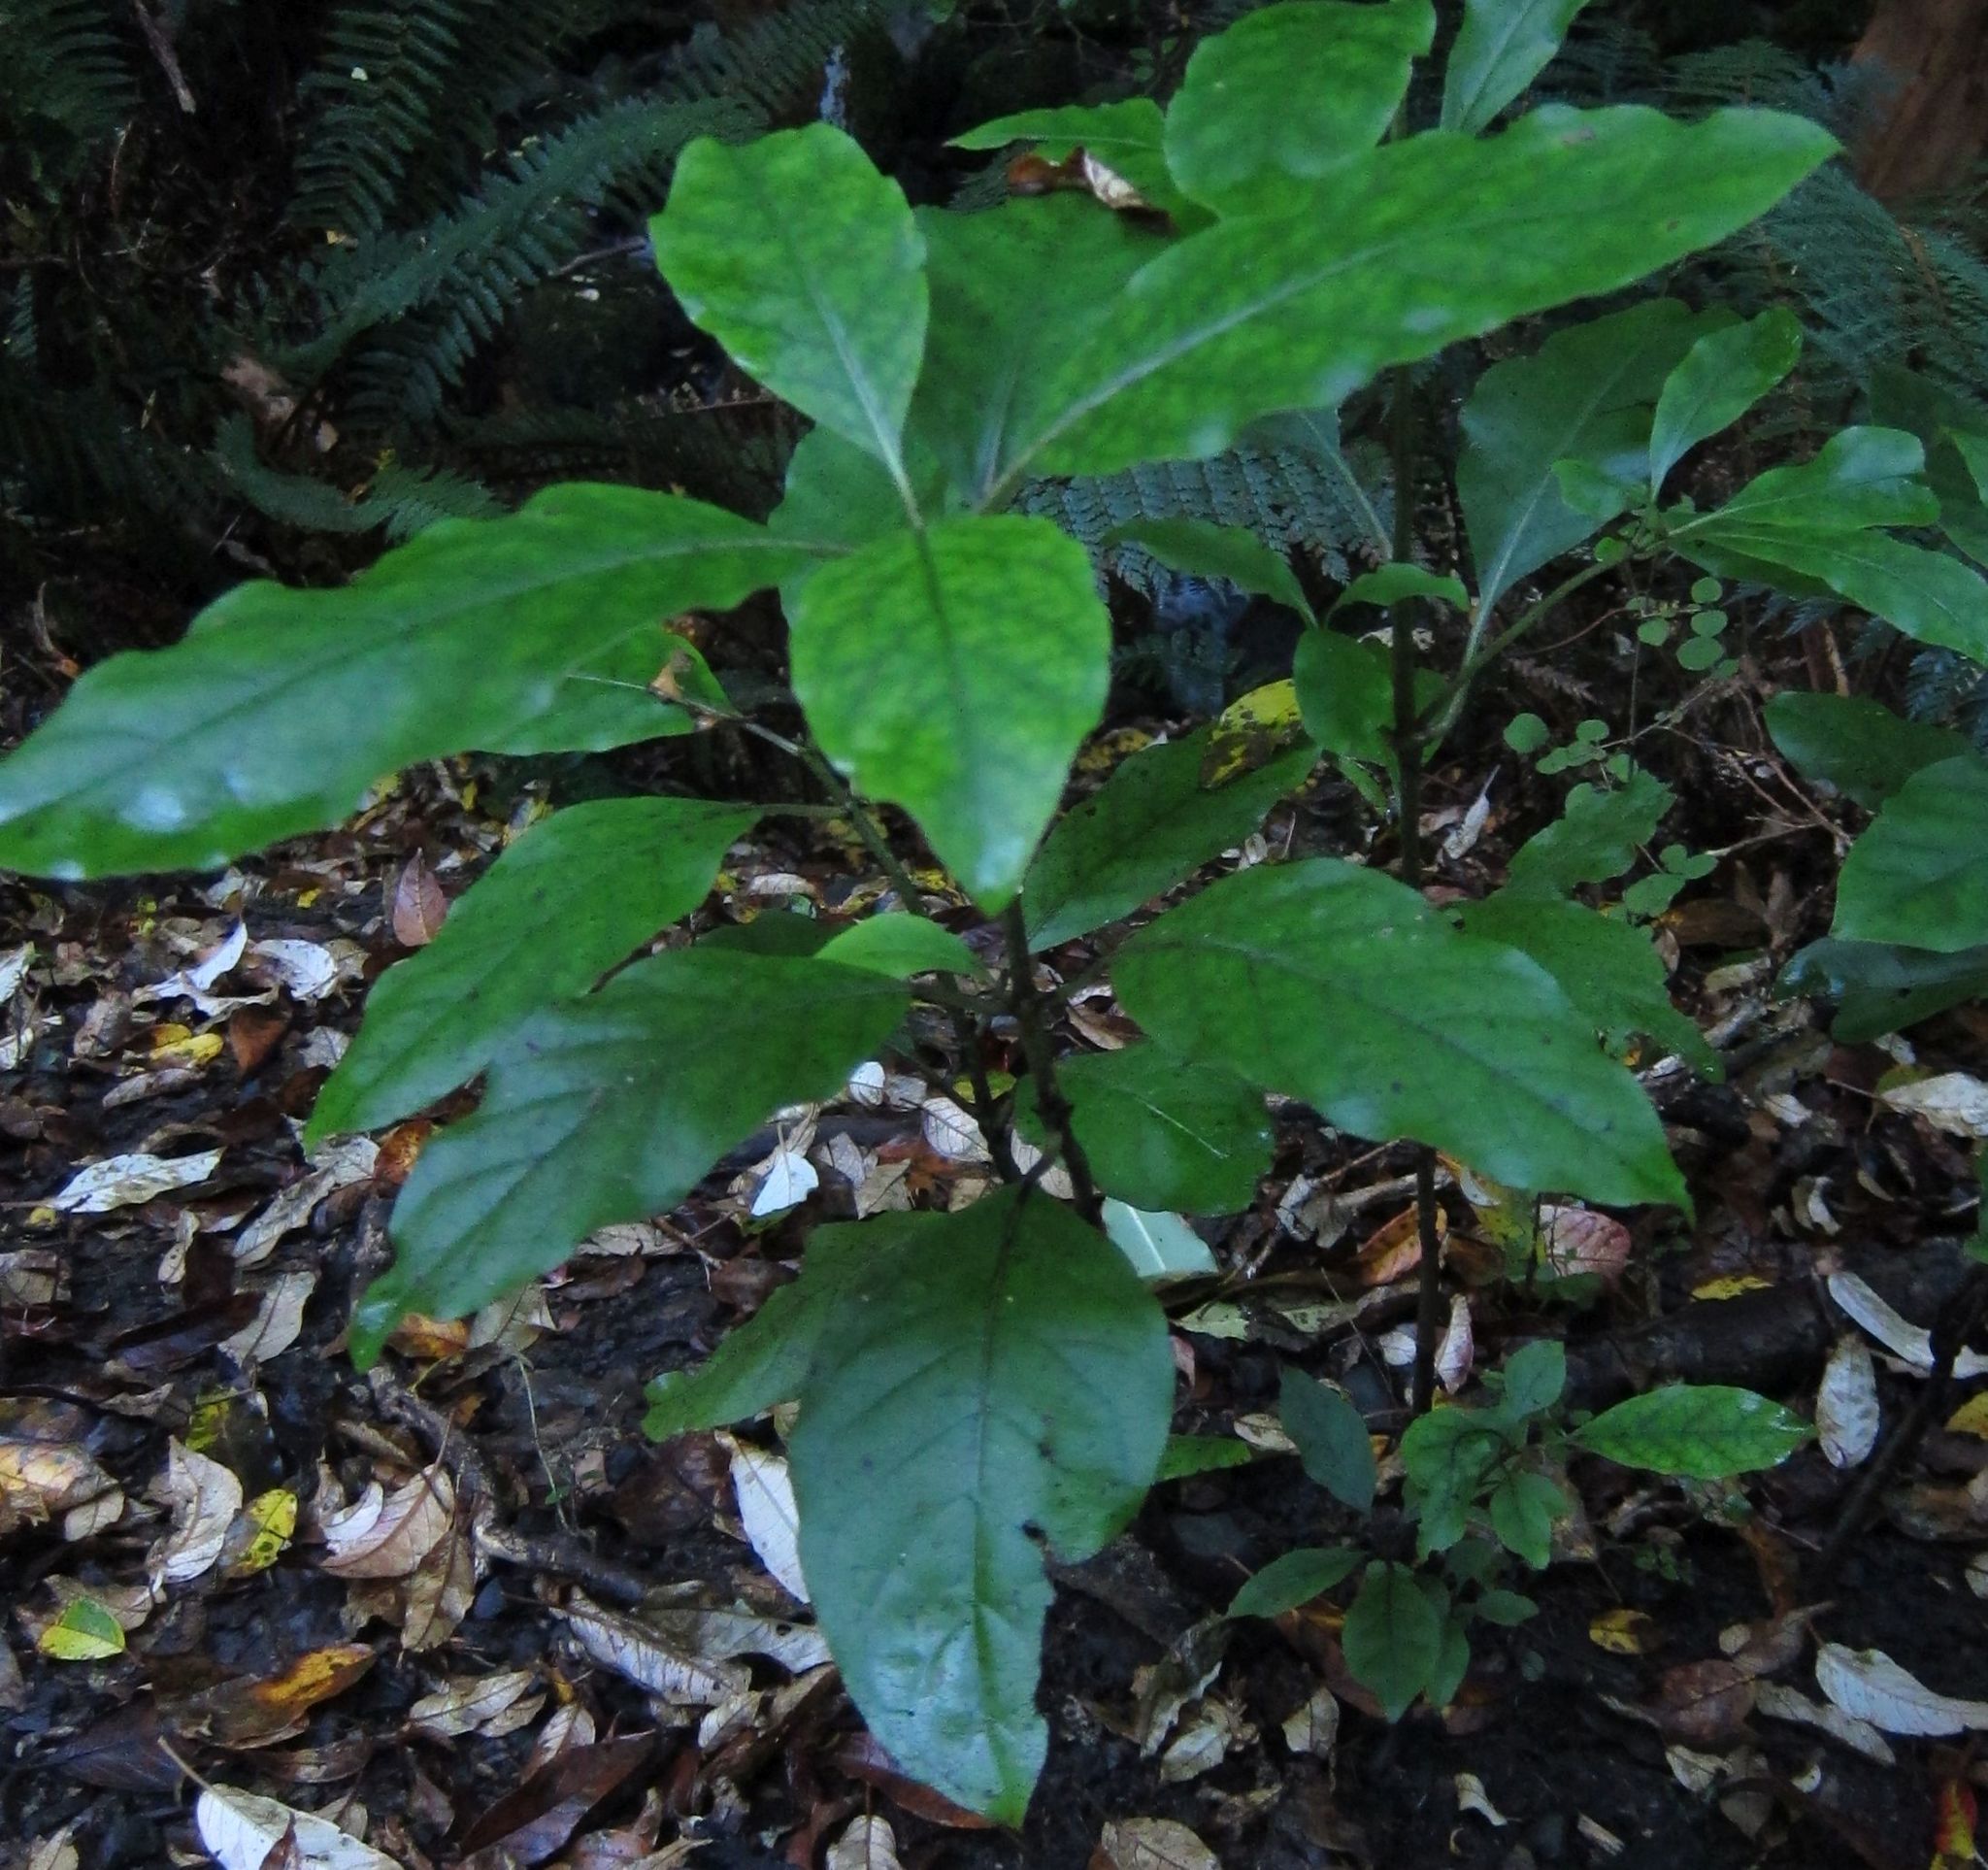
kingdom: Plantae
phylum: Tracheophyta
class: Magnoliopsida
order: Gentianales
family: Rubiaceae
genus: Coprosma
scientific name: Coprosma autumnalis
